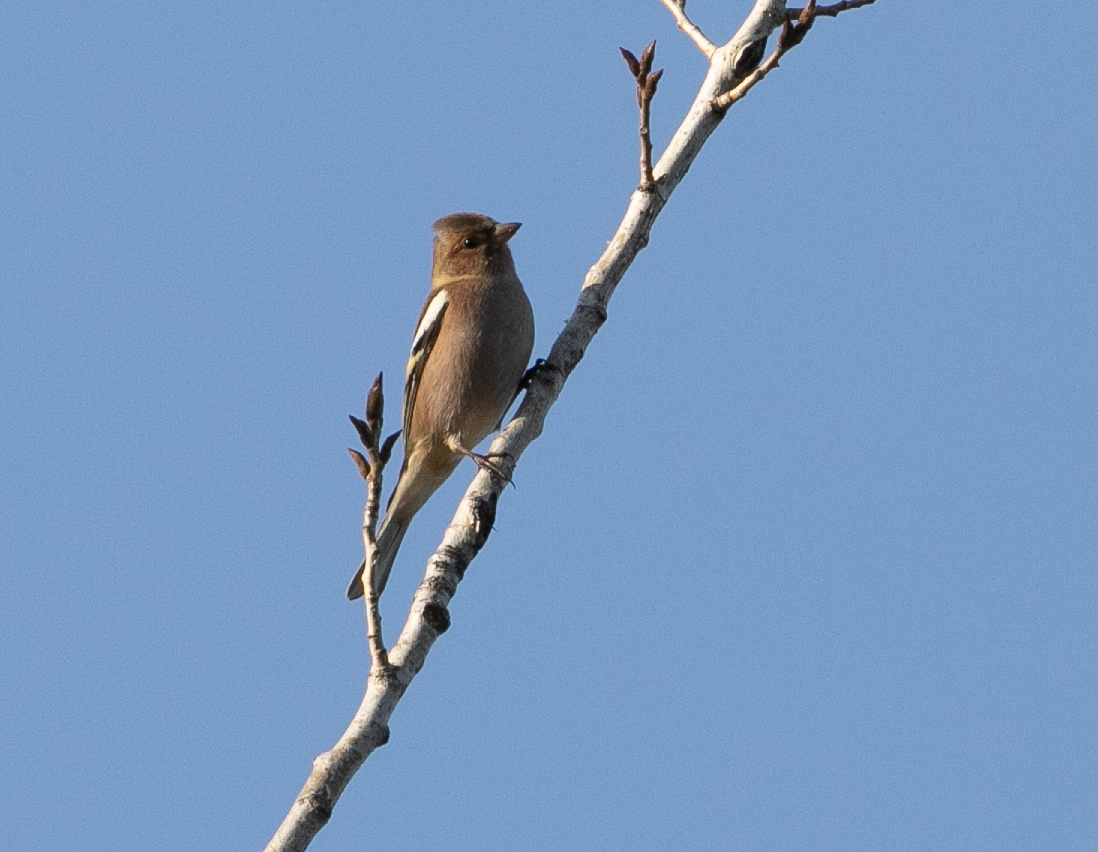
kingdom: Animalia
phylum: Chordata
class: Aves
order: Passeriformes
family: Fringillidae
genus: Fringilla
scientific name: Fringilla coelebs
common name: Common chaffinch
